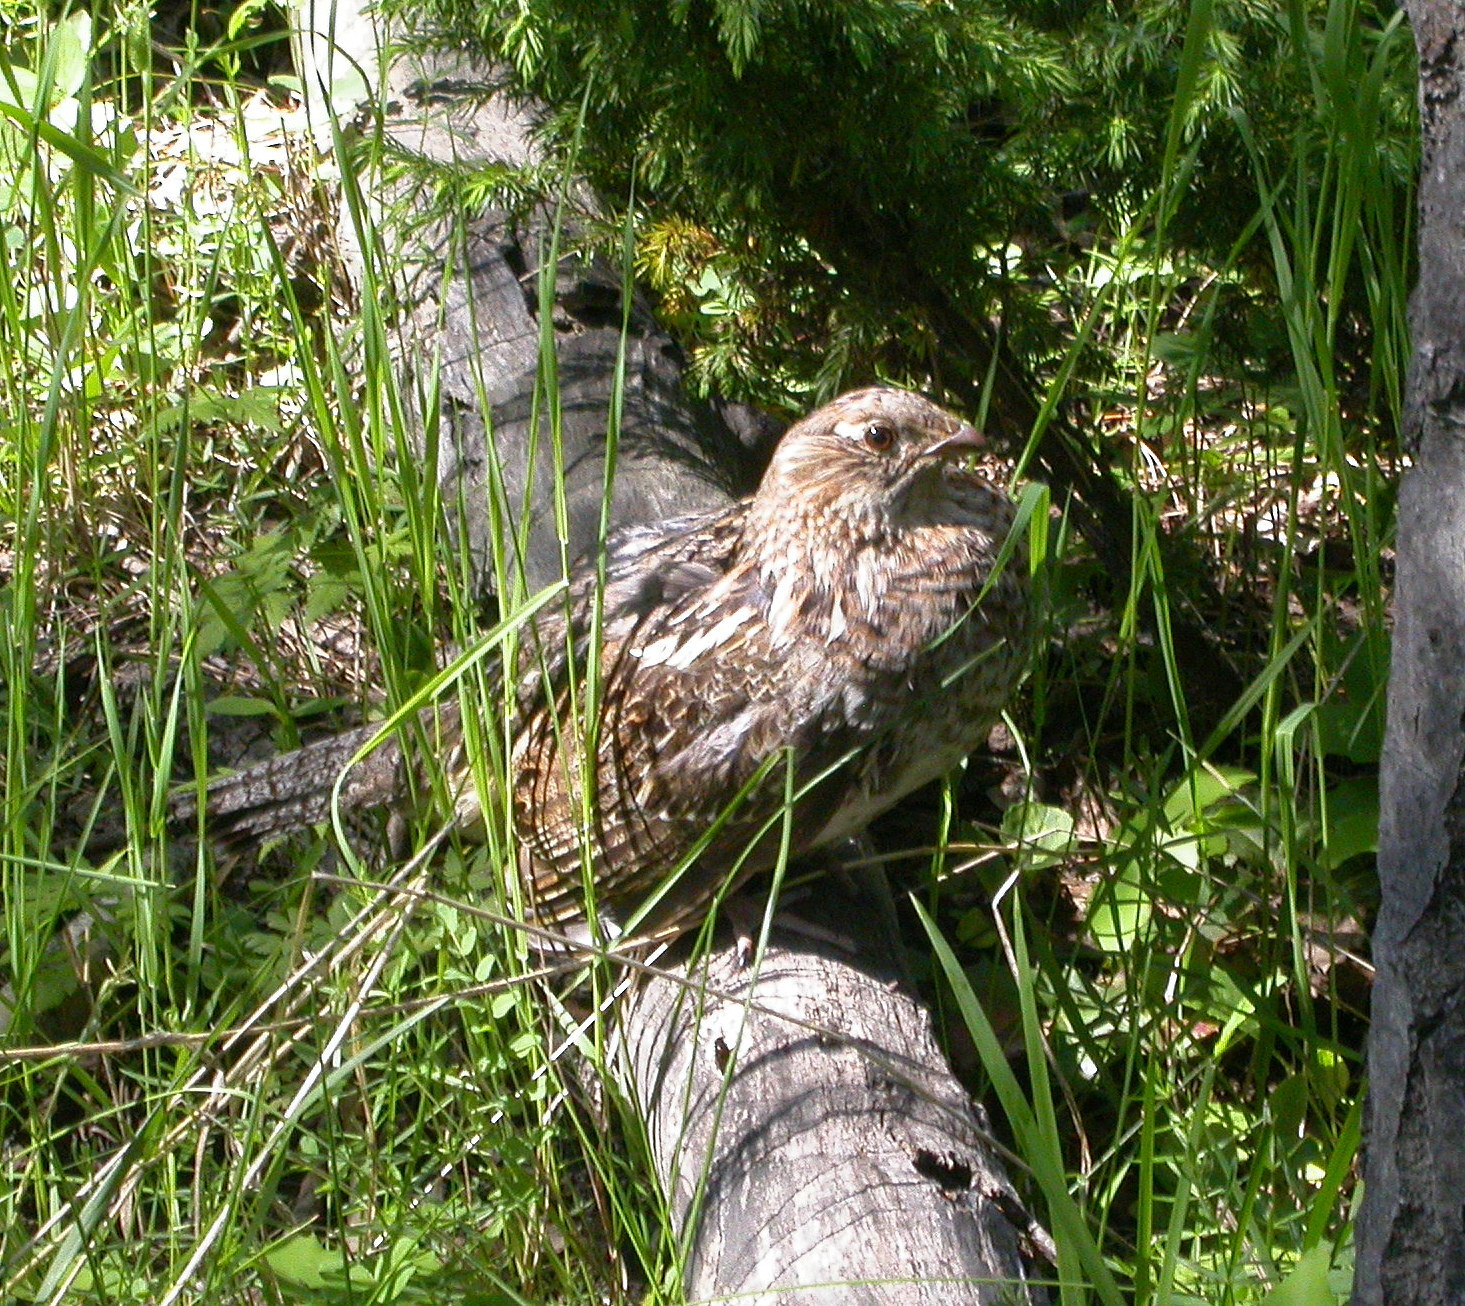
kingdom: Animalia
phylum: Chordata
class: Aves
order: Galliformes
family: Phasianidae
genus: Bonasa
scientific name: Bonasa umbellus
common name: Ruffed grouse
